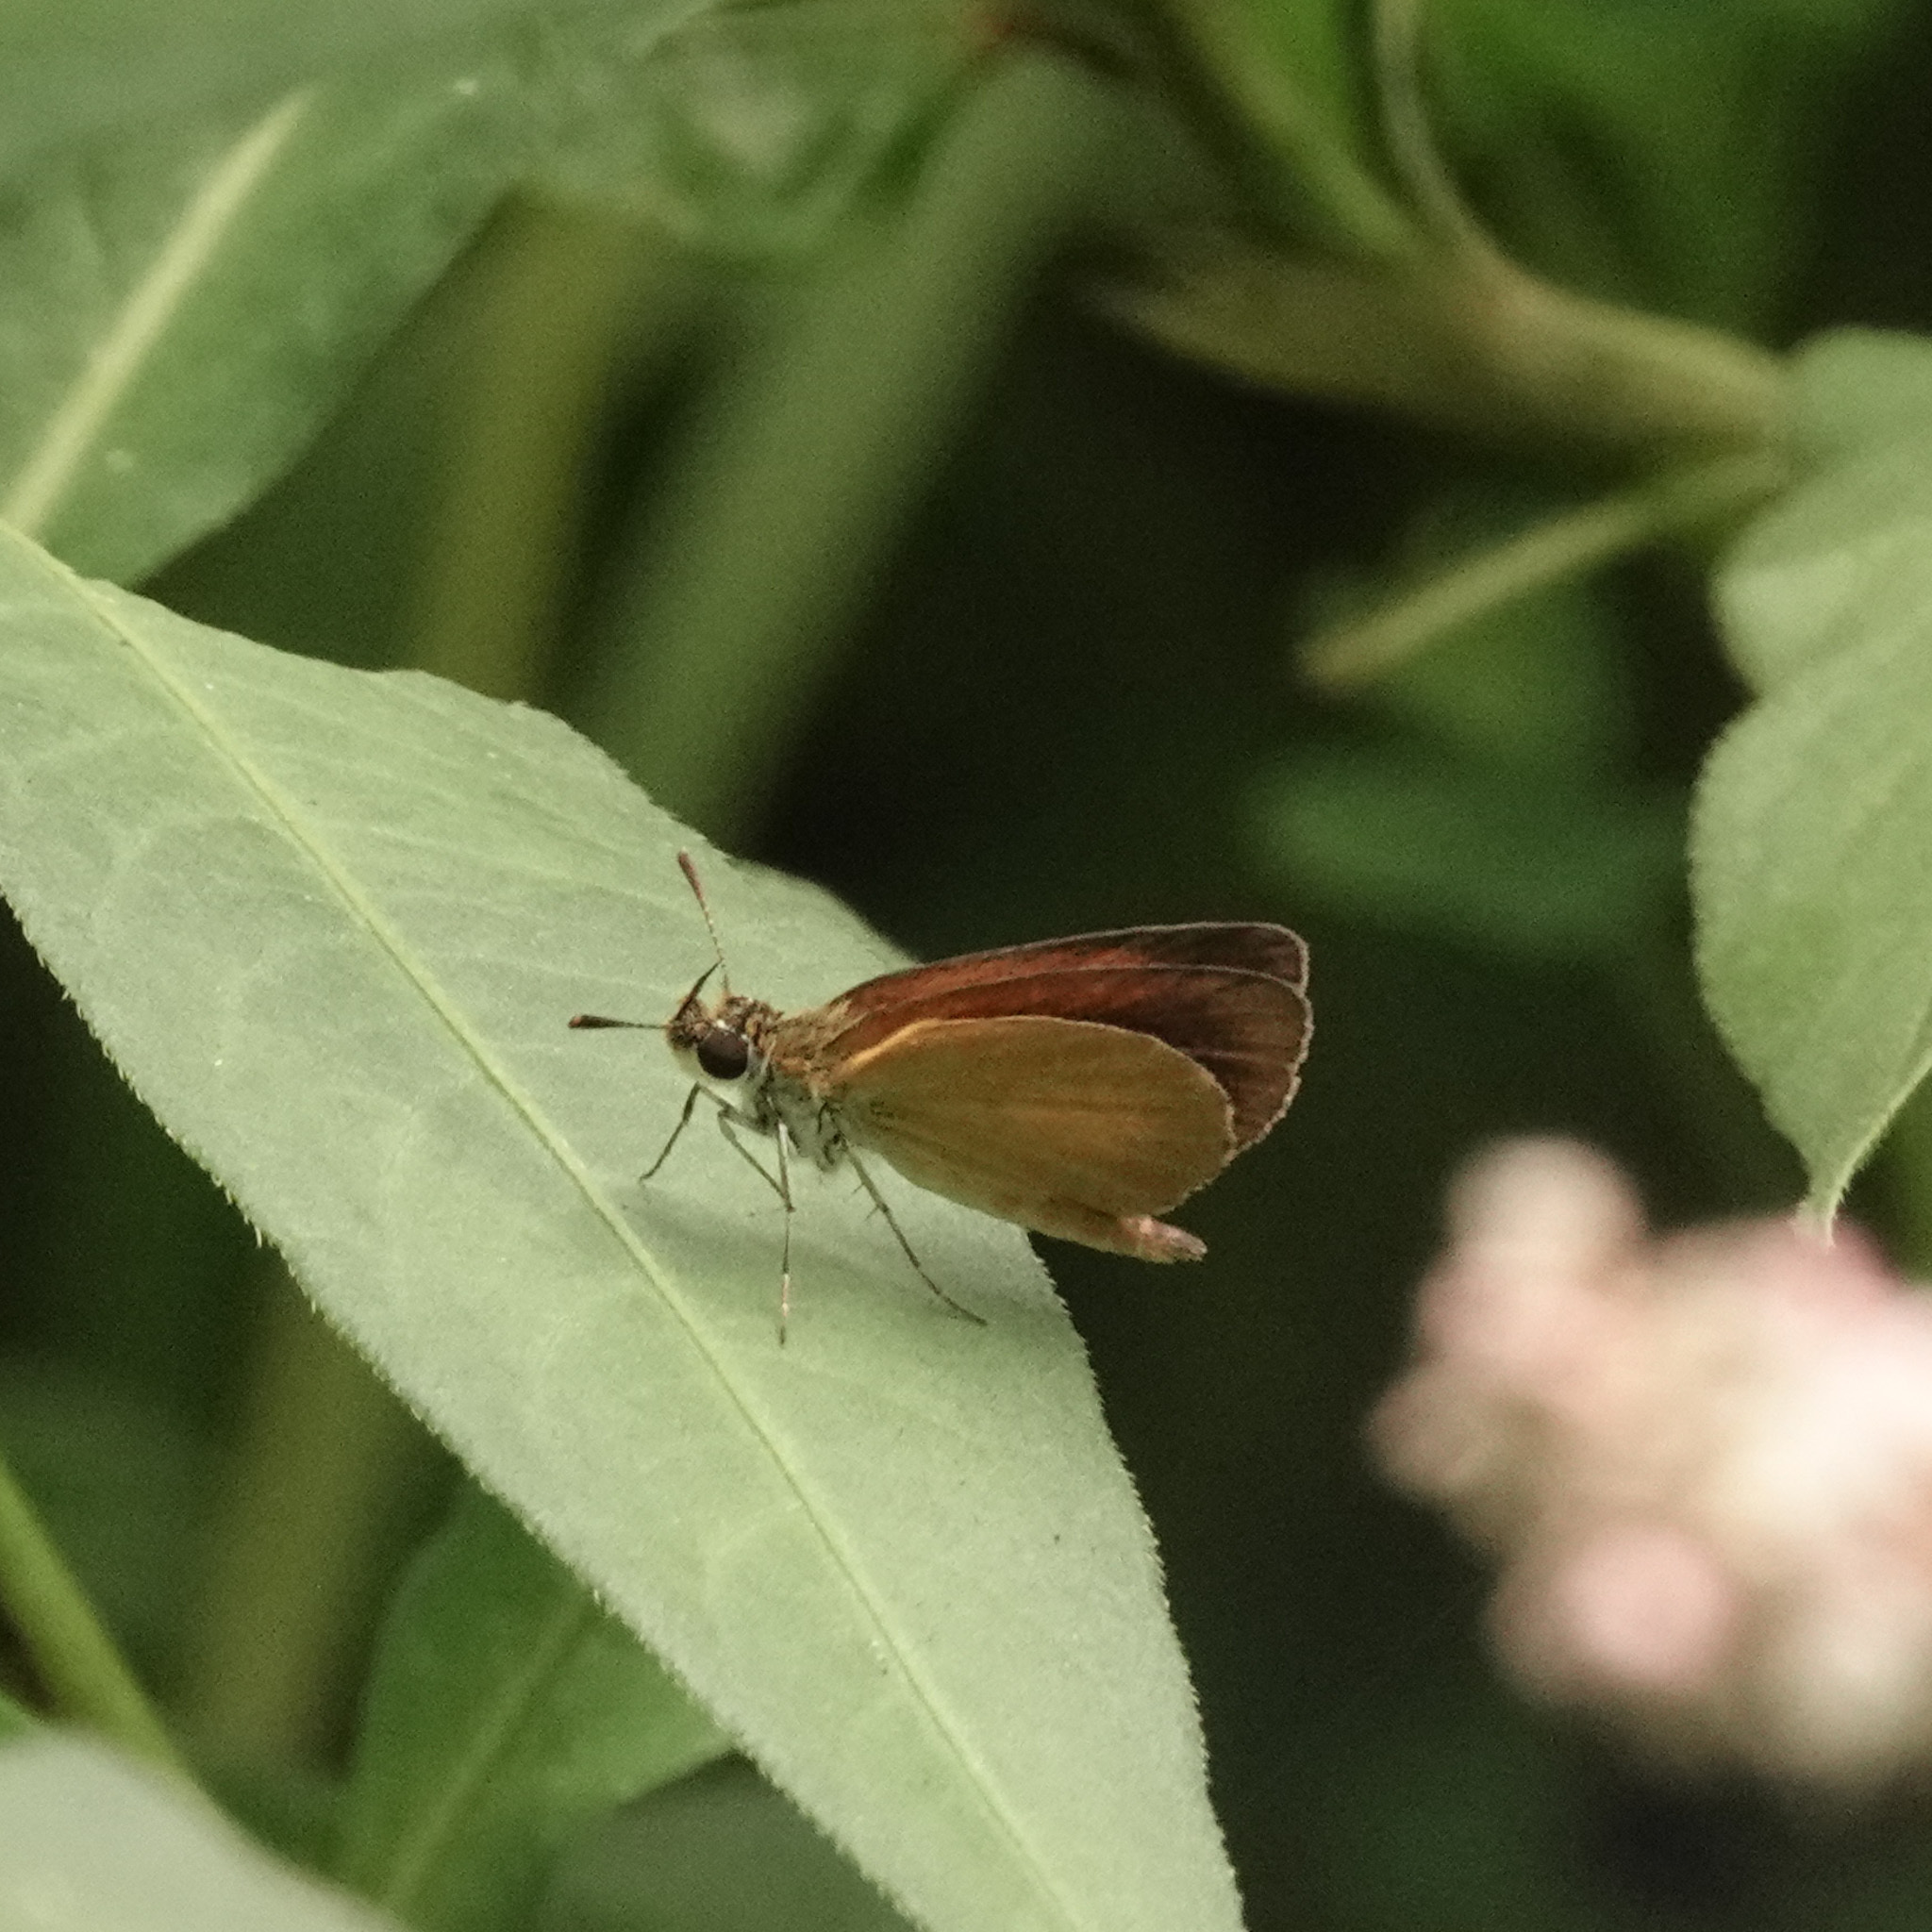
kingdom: Animalia
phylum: Arthropoda
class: Insecta
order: Lepidoptera
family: Hesperiidae
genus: Ancyloxypha
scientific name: Ancyloxypha numitor
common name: Least skipper
